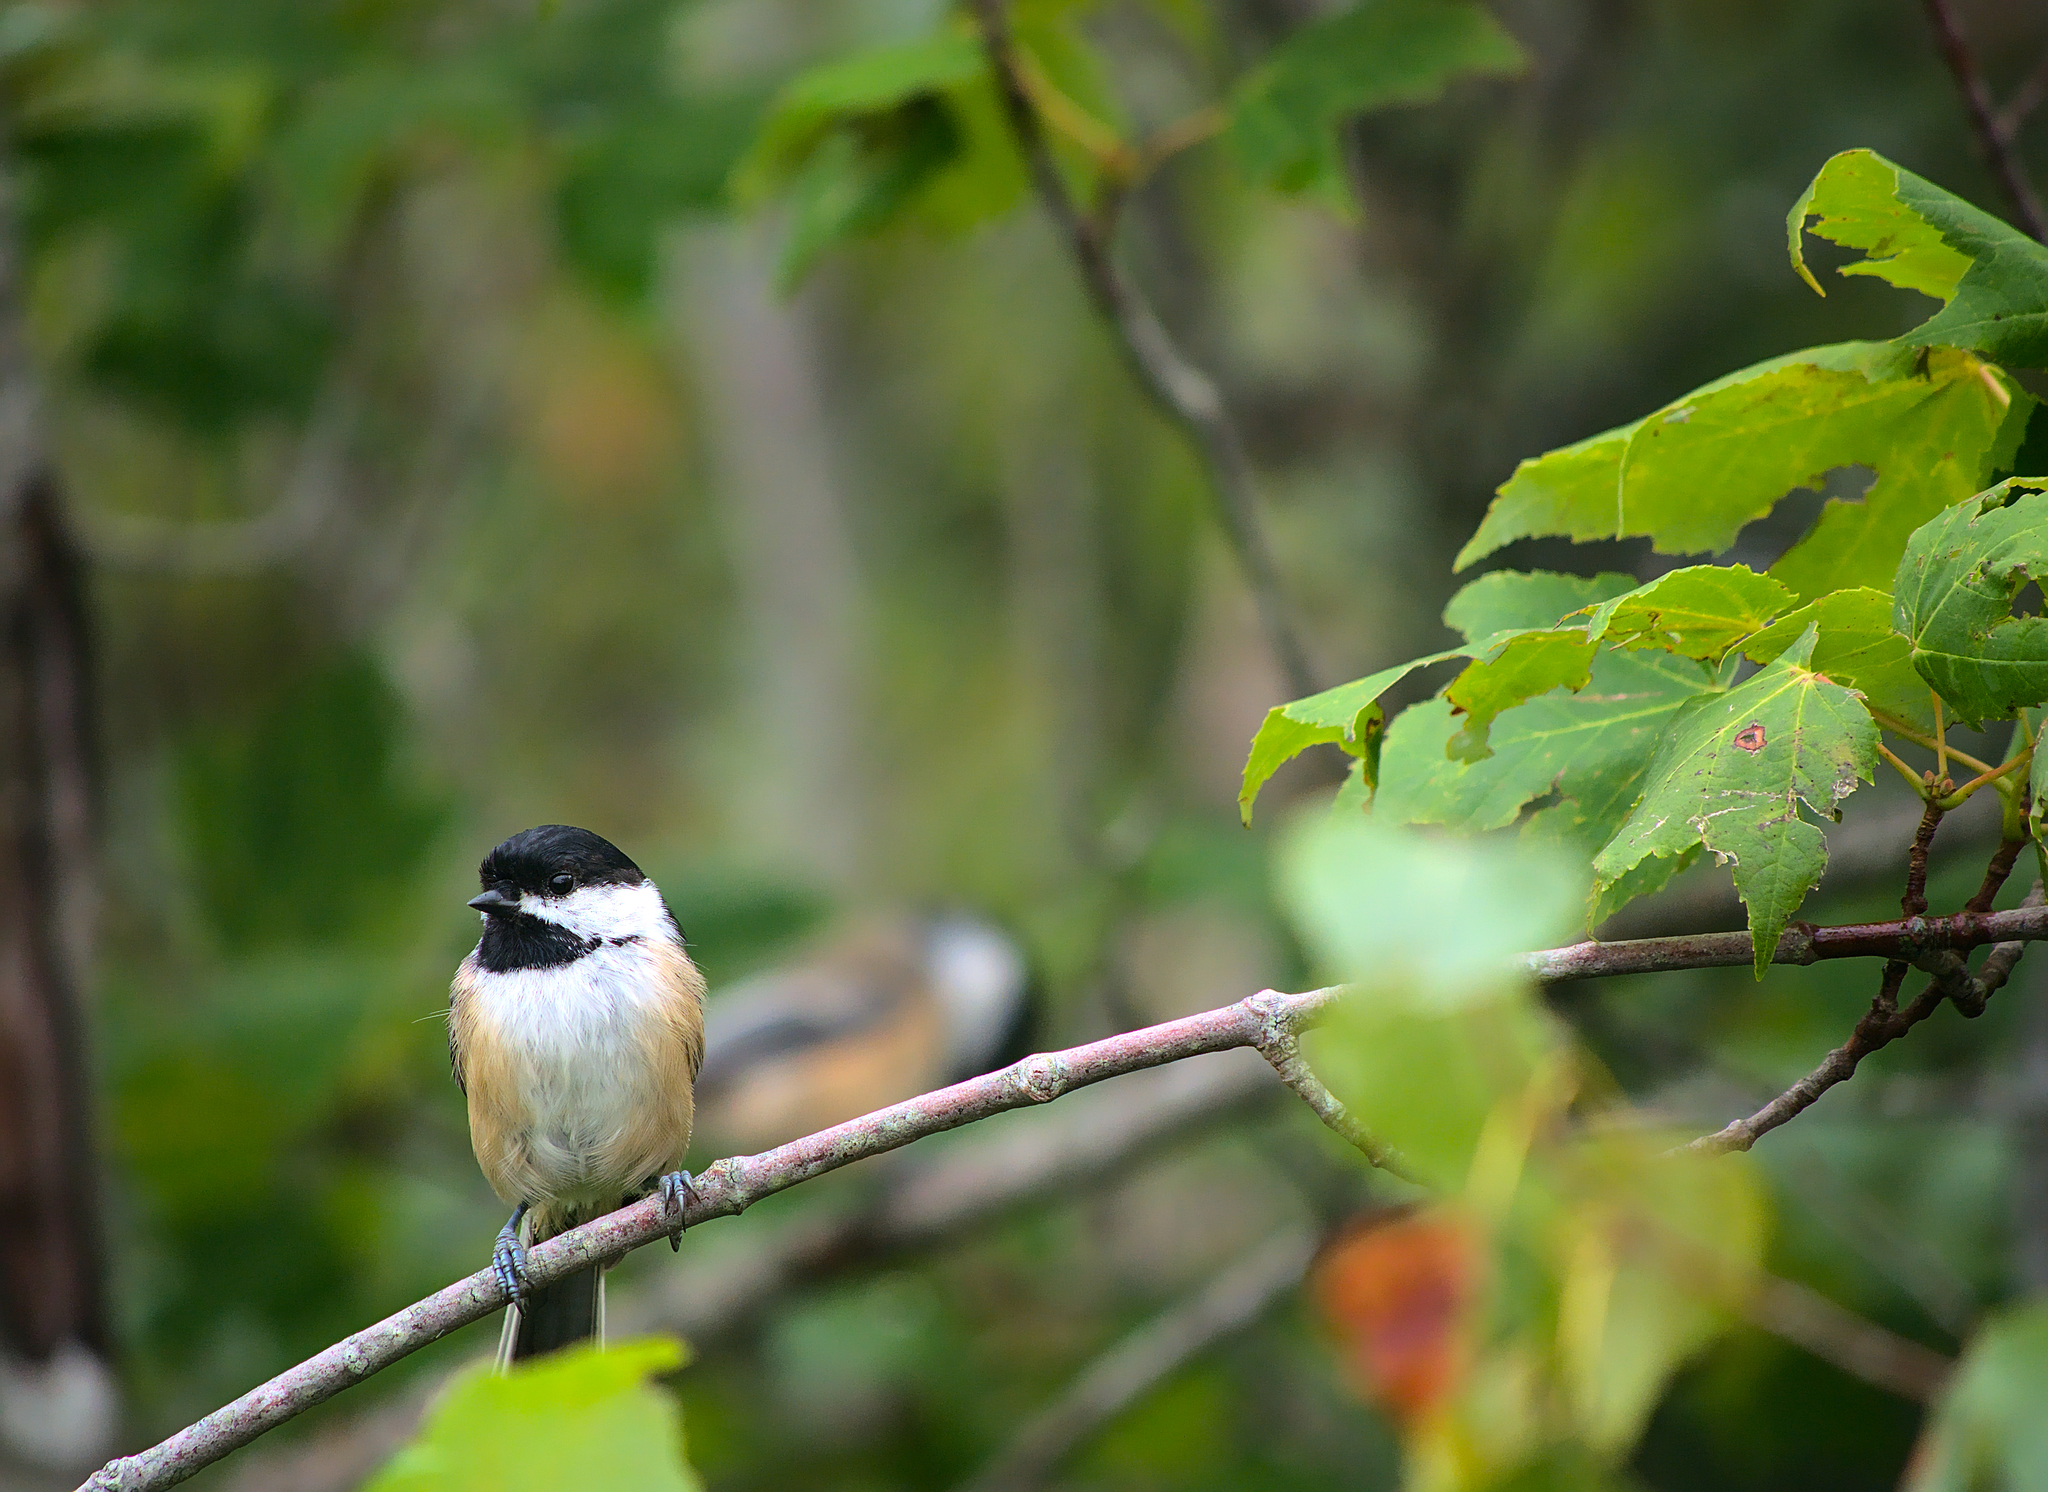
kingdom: Animalia
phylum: Chordata
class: Aves
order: Passeriformes
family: Paridae
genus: Poecile
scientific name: Poecile atricapillus
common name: Black-capped chickadee
